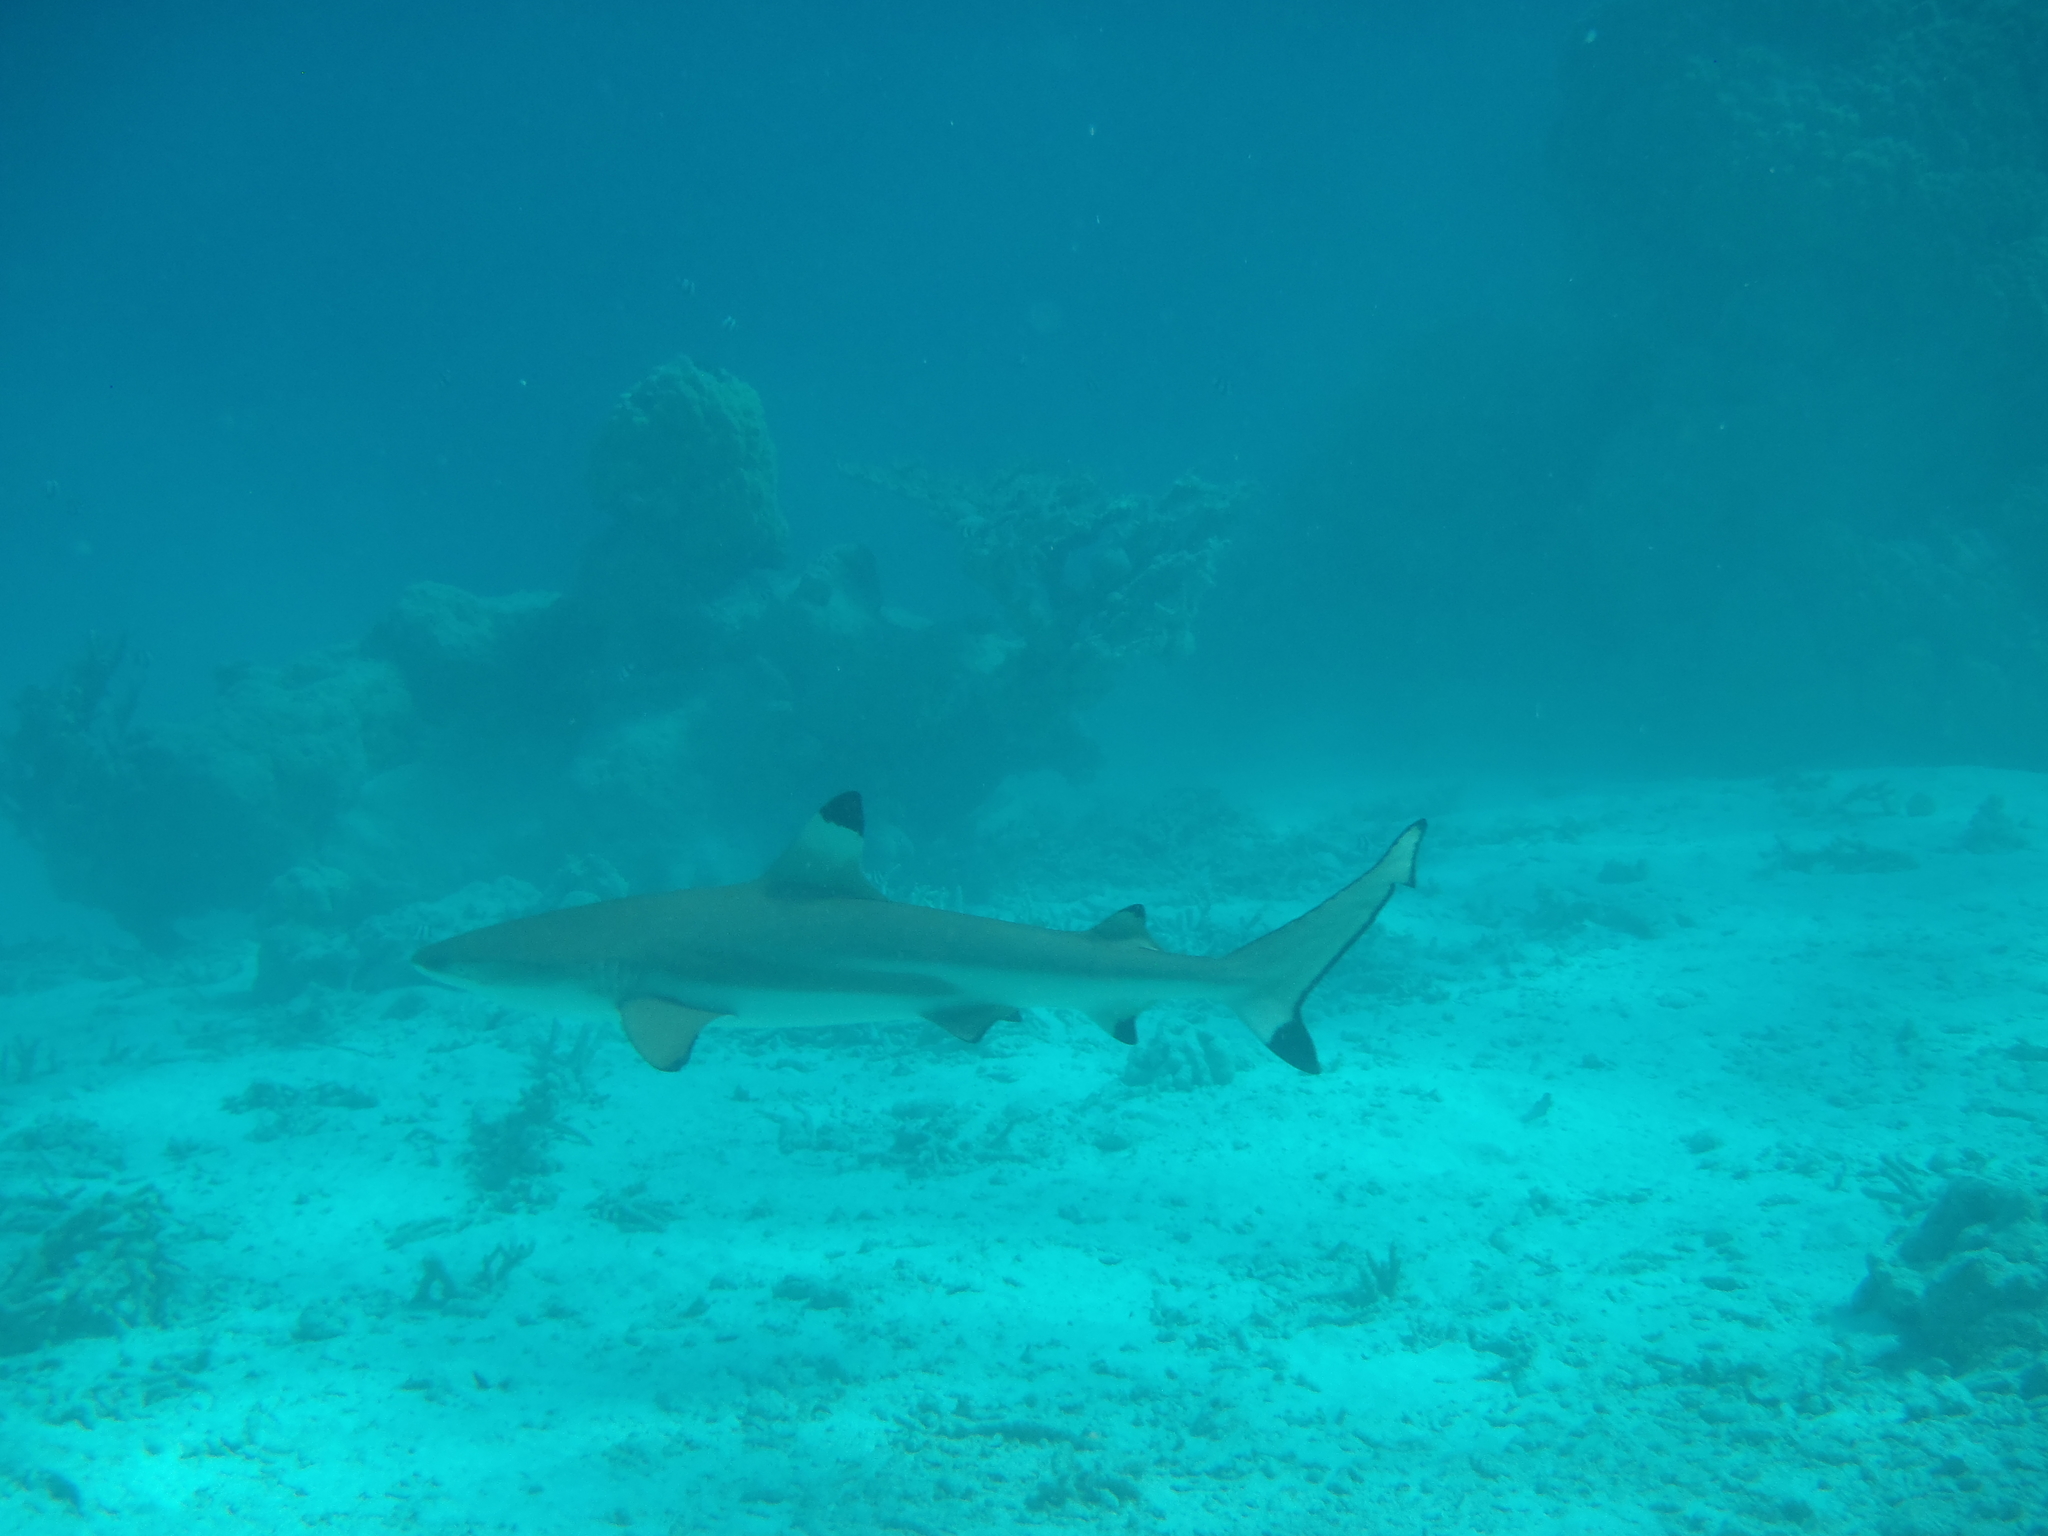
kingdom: Animalia
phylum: Chordata
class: Elasmobranchii
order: Carcharhiniformes
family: Carcharhinidae
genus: Carcharhinus
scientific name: Carcharhinus melanopterus
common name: Blacktip reef shark
